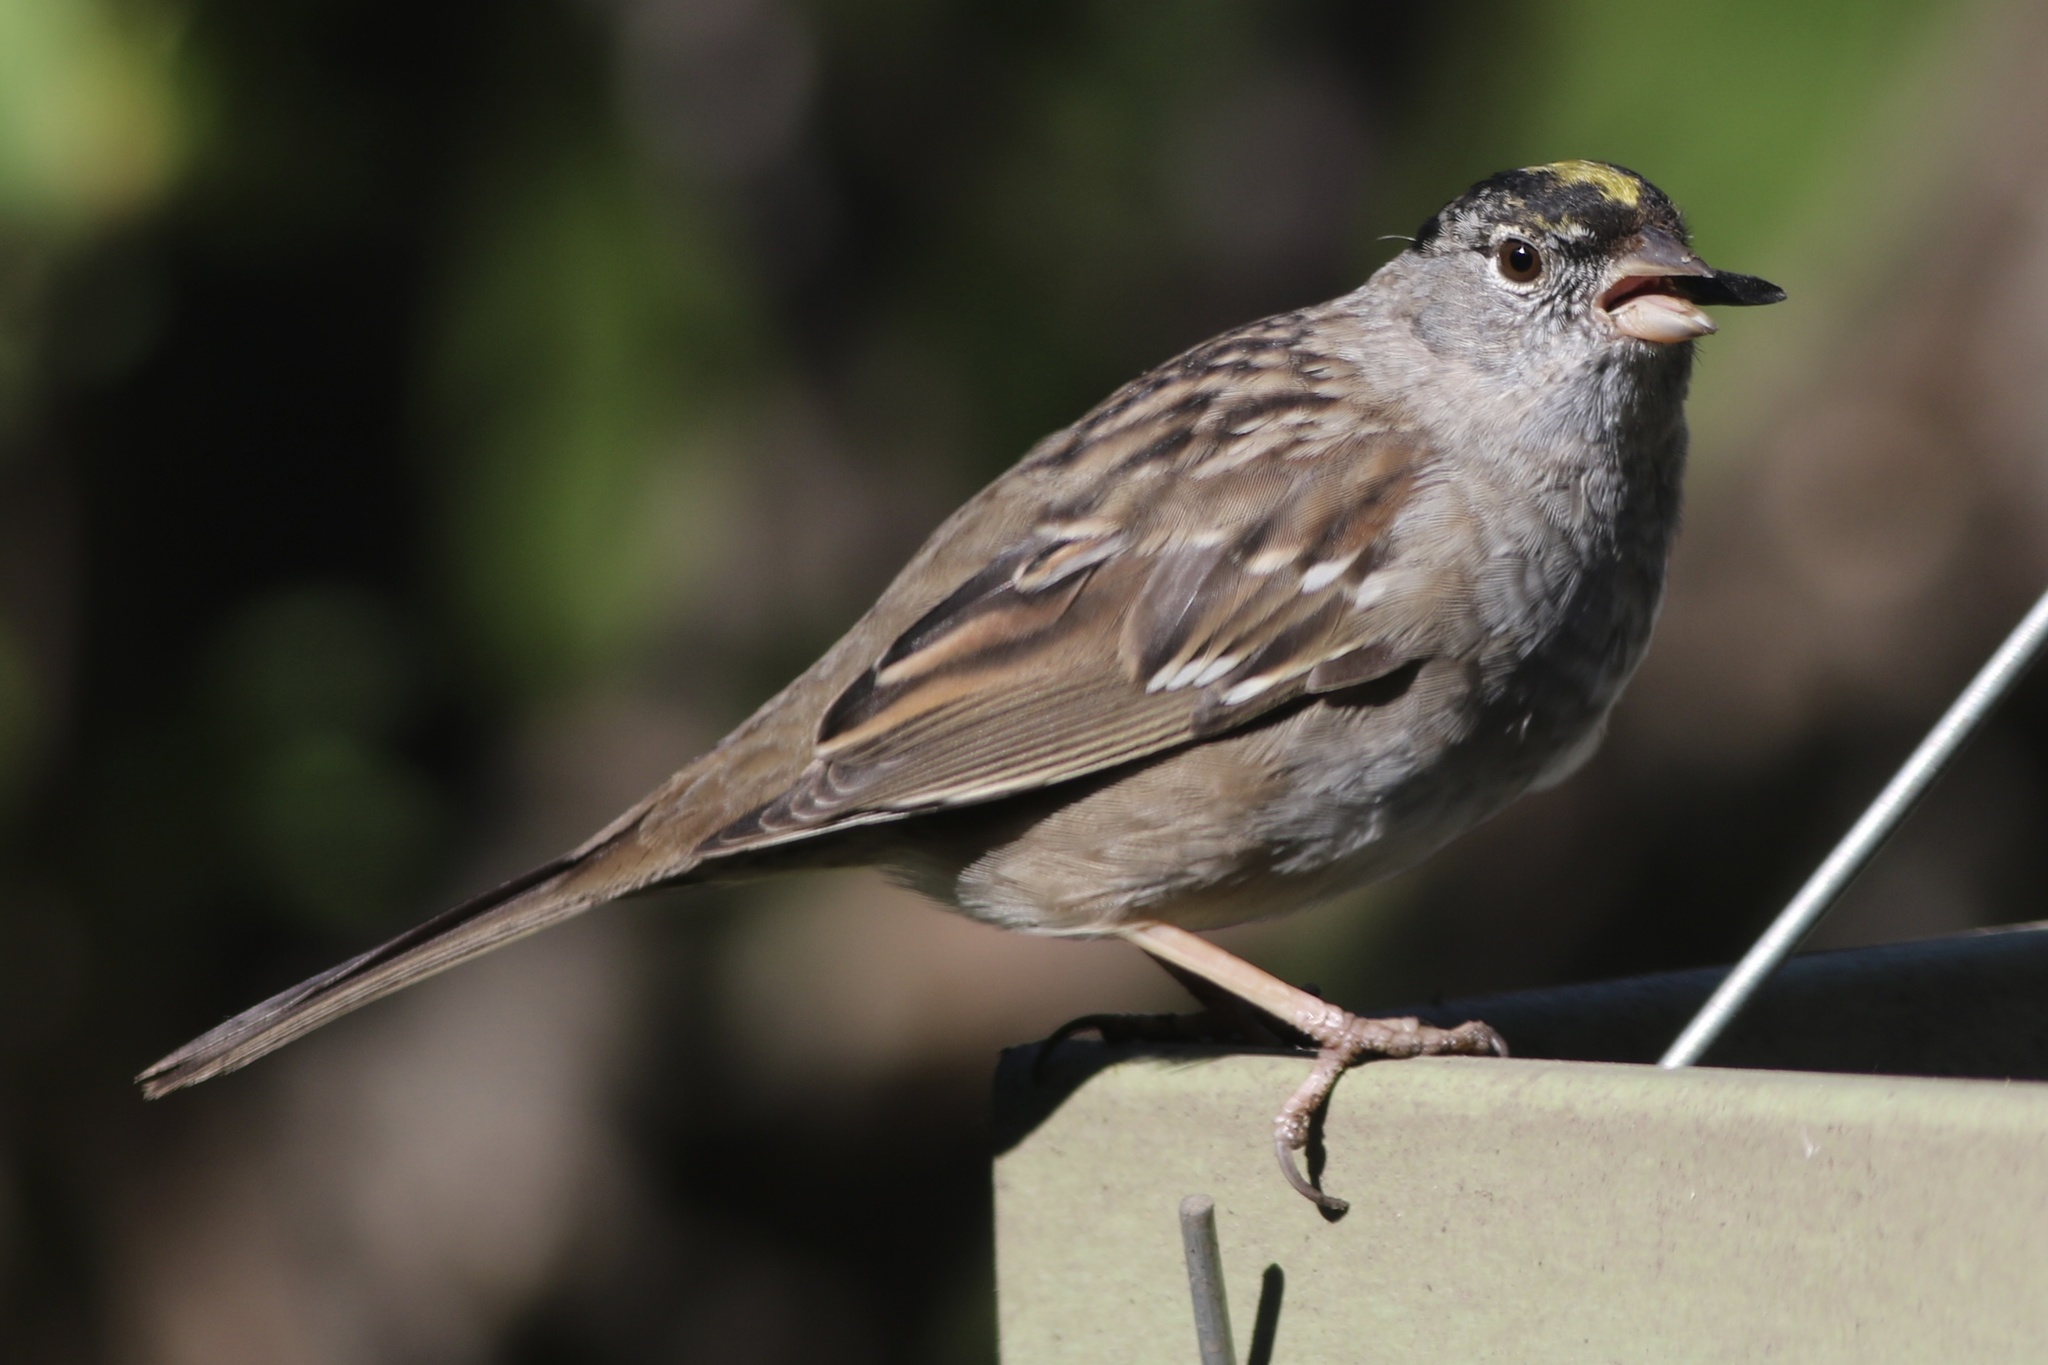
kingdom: Animalia
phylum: Chordata
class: Aves
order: Passeriformes
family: Passerellidae
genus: Zonotrichia
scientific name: Zonotrichia atricapilla
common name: Golden-crowned sparrow
